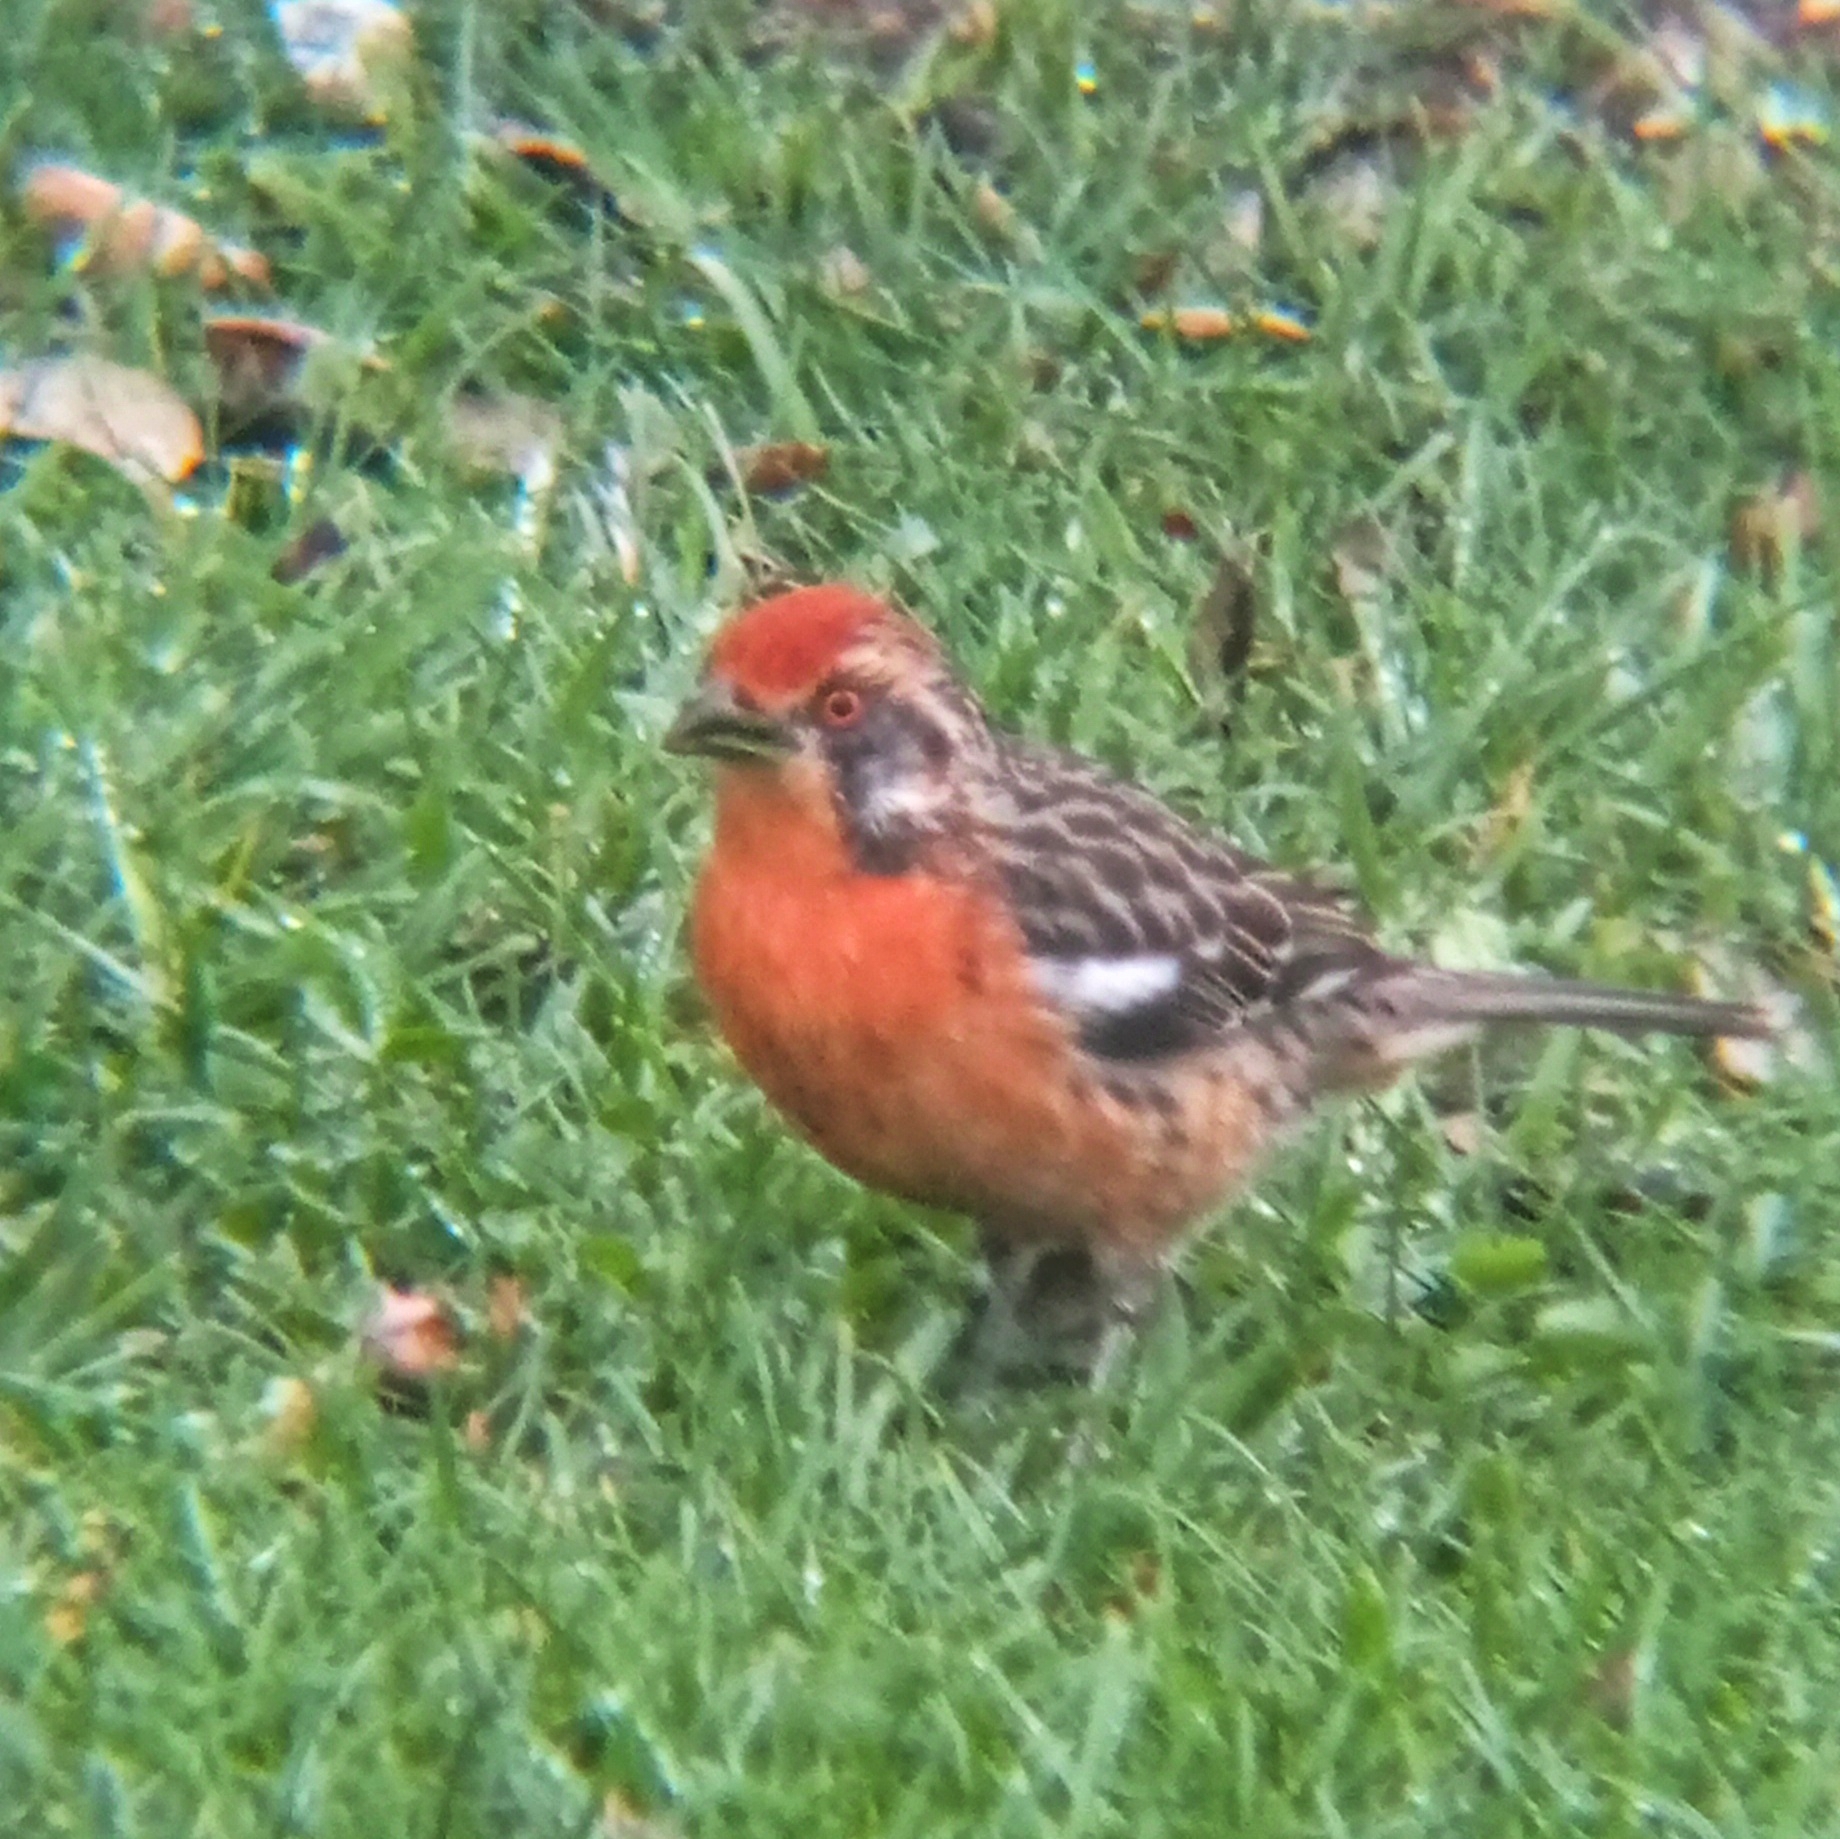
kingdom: Animalia
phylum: Chordata
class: Aves
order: Passeriformes
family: Cotingidae
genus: Phytotoma
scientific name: Phytotoma rara
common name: Rufous-tailed plantcutter
